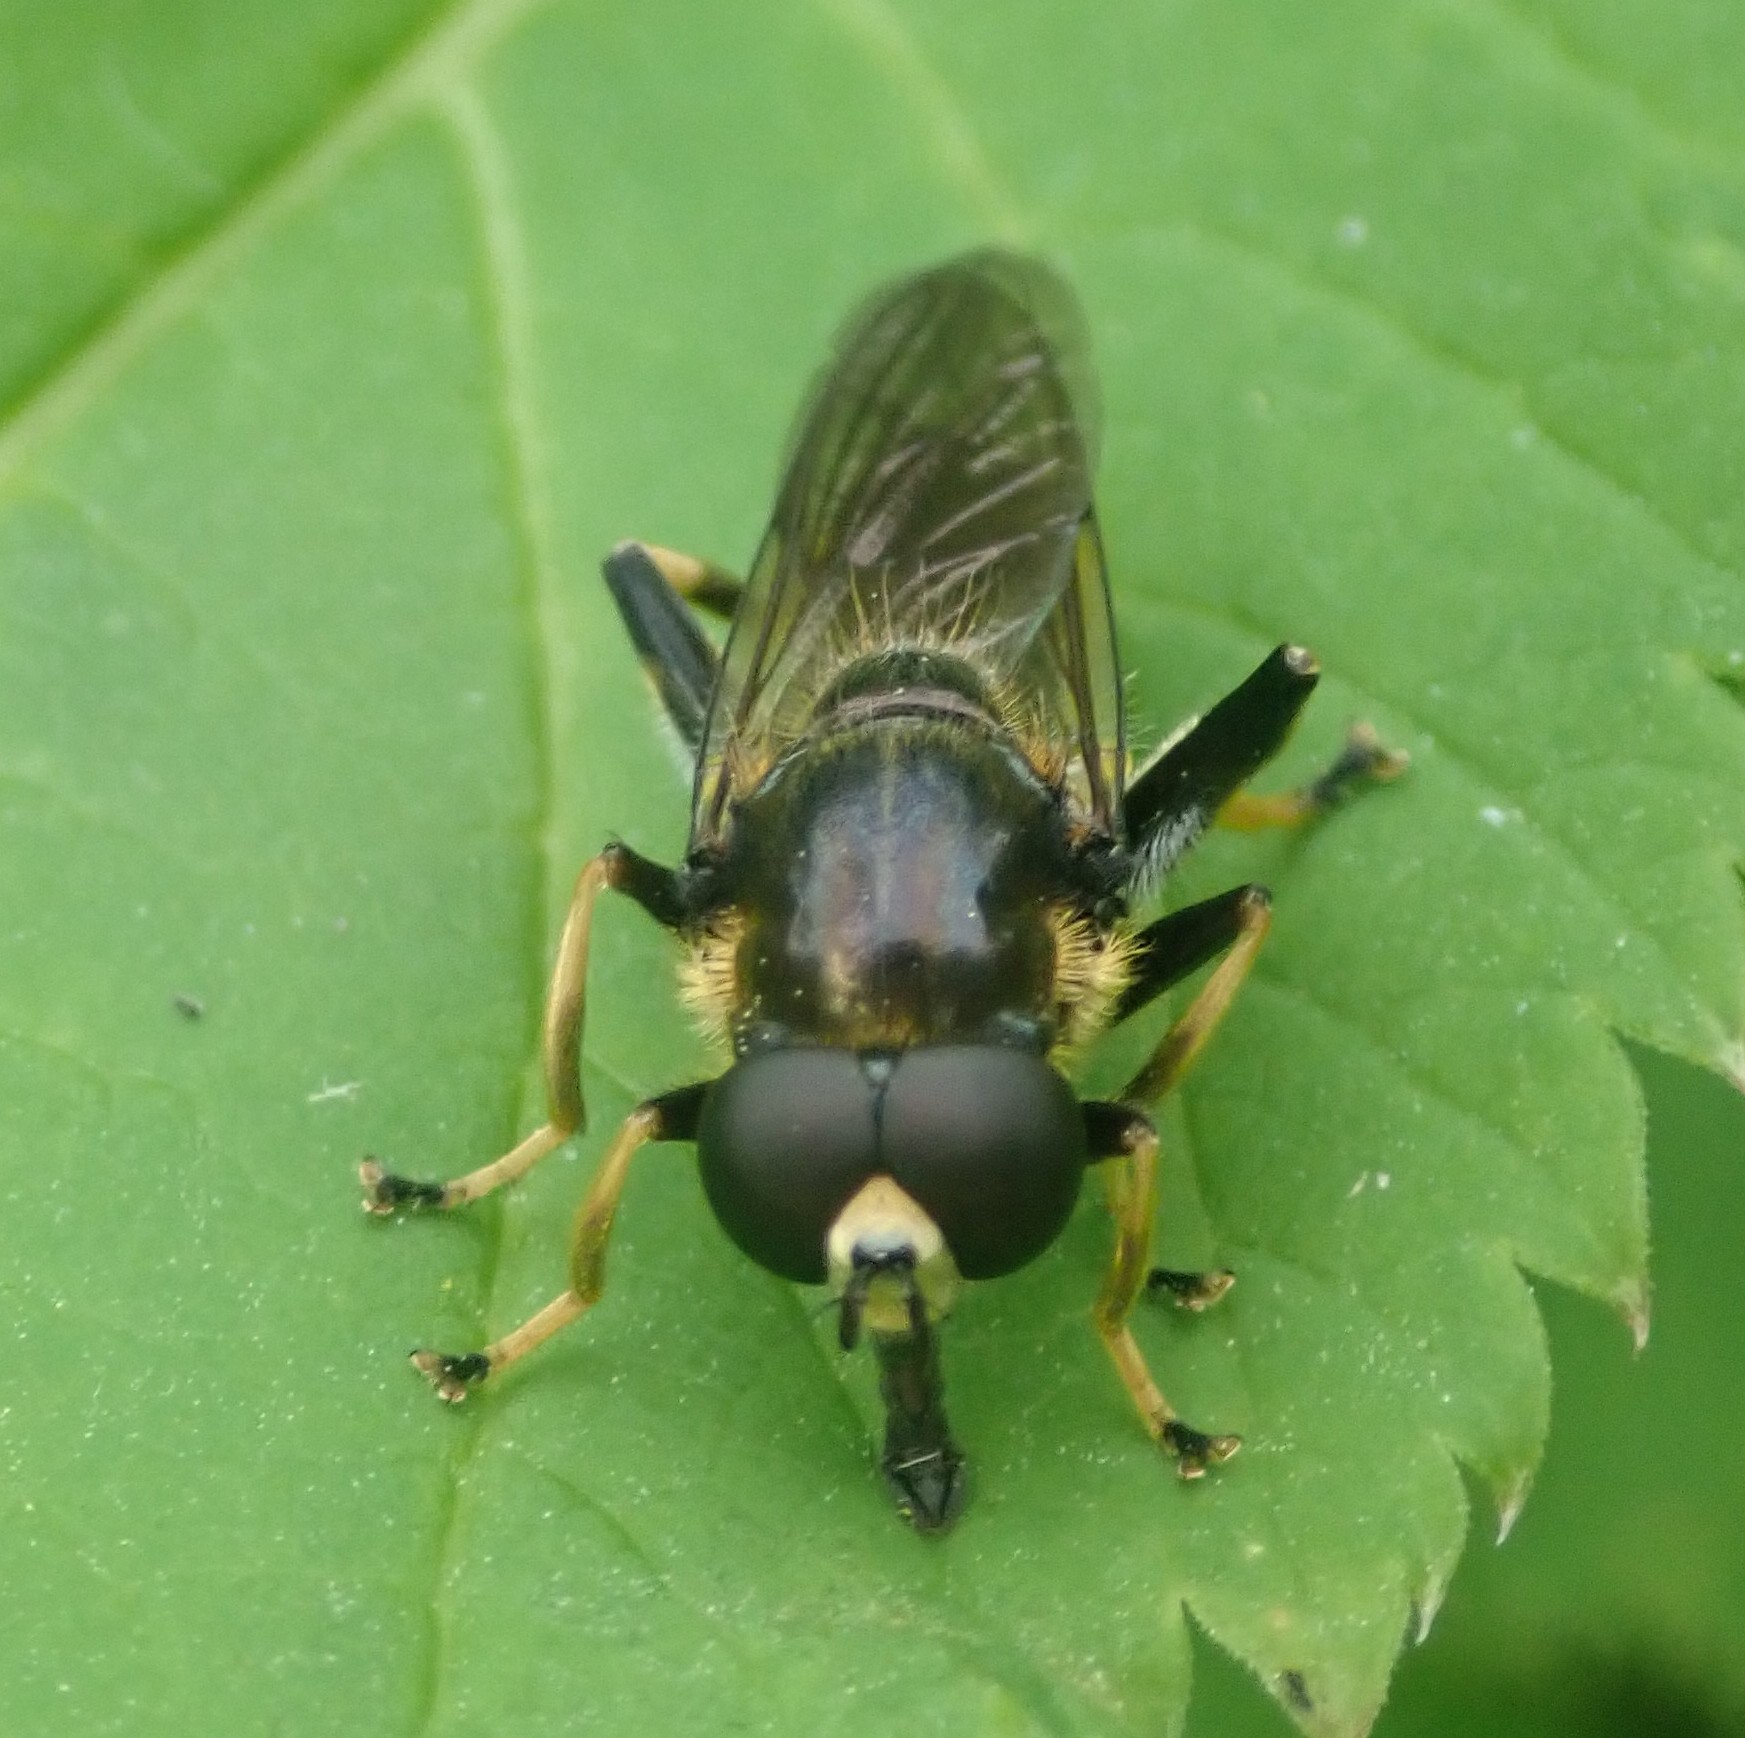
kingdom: Animalia
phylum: Arthropoda
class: Insecta
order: Diptera
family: Syrphidae
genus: Xylota
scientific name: Xylota sylvarum
